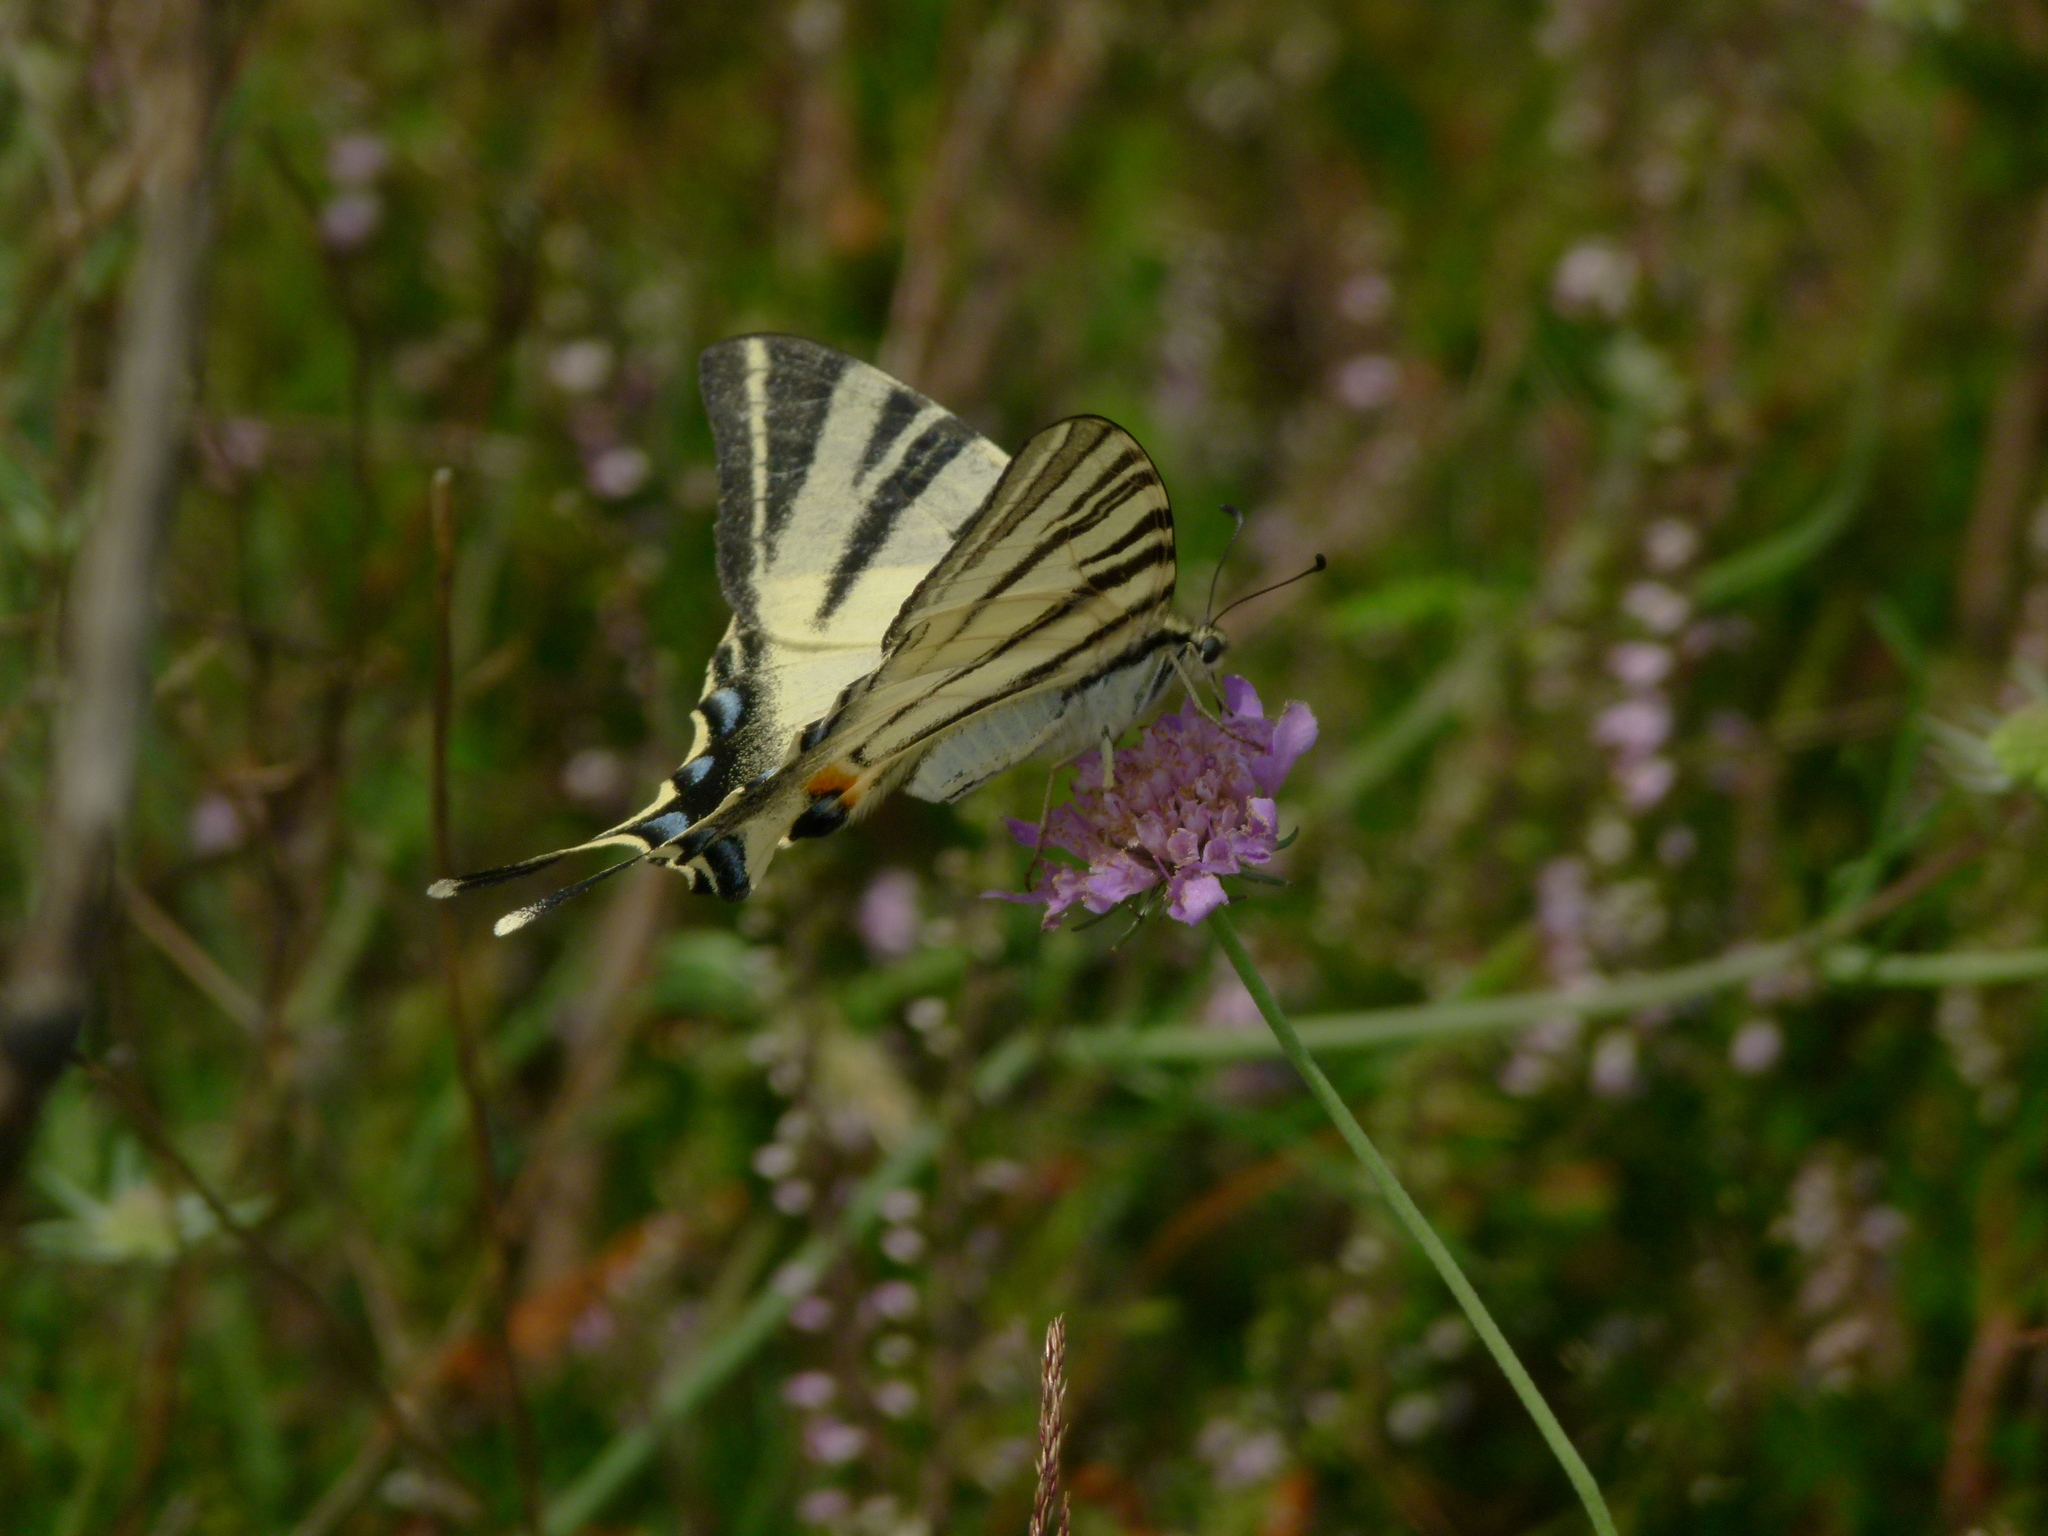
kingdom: Animalia
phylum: Arthropoda
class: Insecta
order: Lepidoptera
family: Papilionidae
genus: Iphiclides
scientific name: Iphiclides podalirius
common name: Scarce swallowtail
